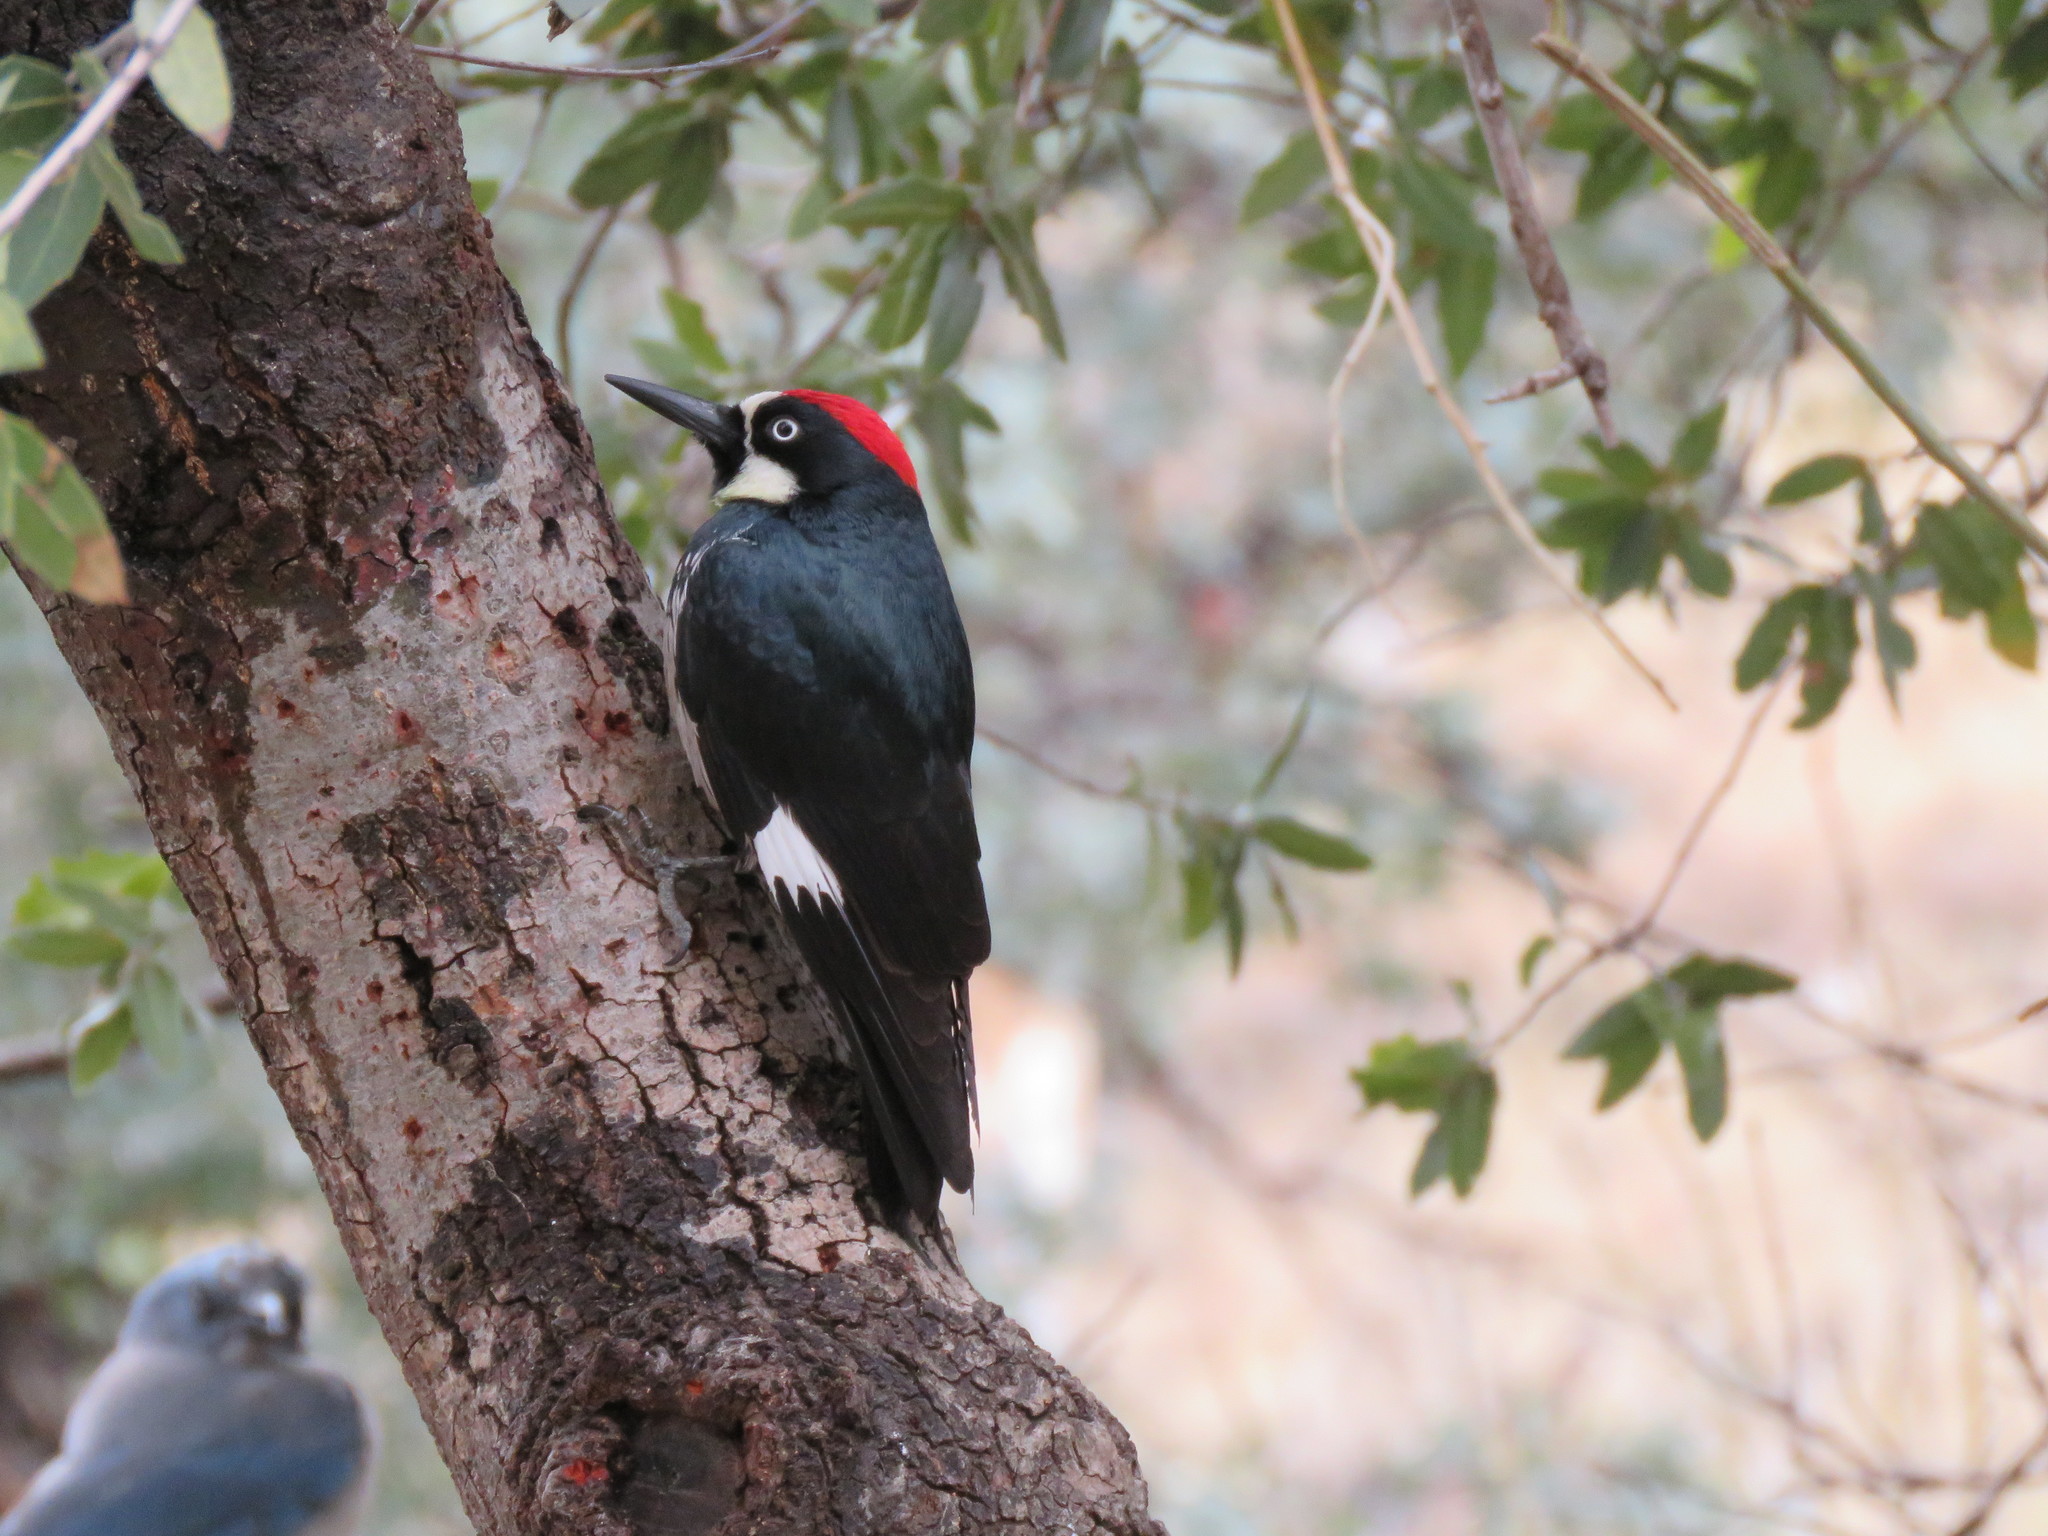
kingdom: Animalia
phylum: Chordata
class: Aves
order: Piciformes
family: Picidae
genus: Melanerpes
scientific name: Melanerpes formicivorus
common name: Acorn woodpecker
